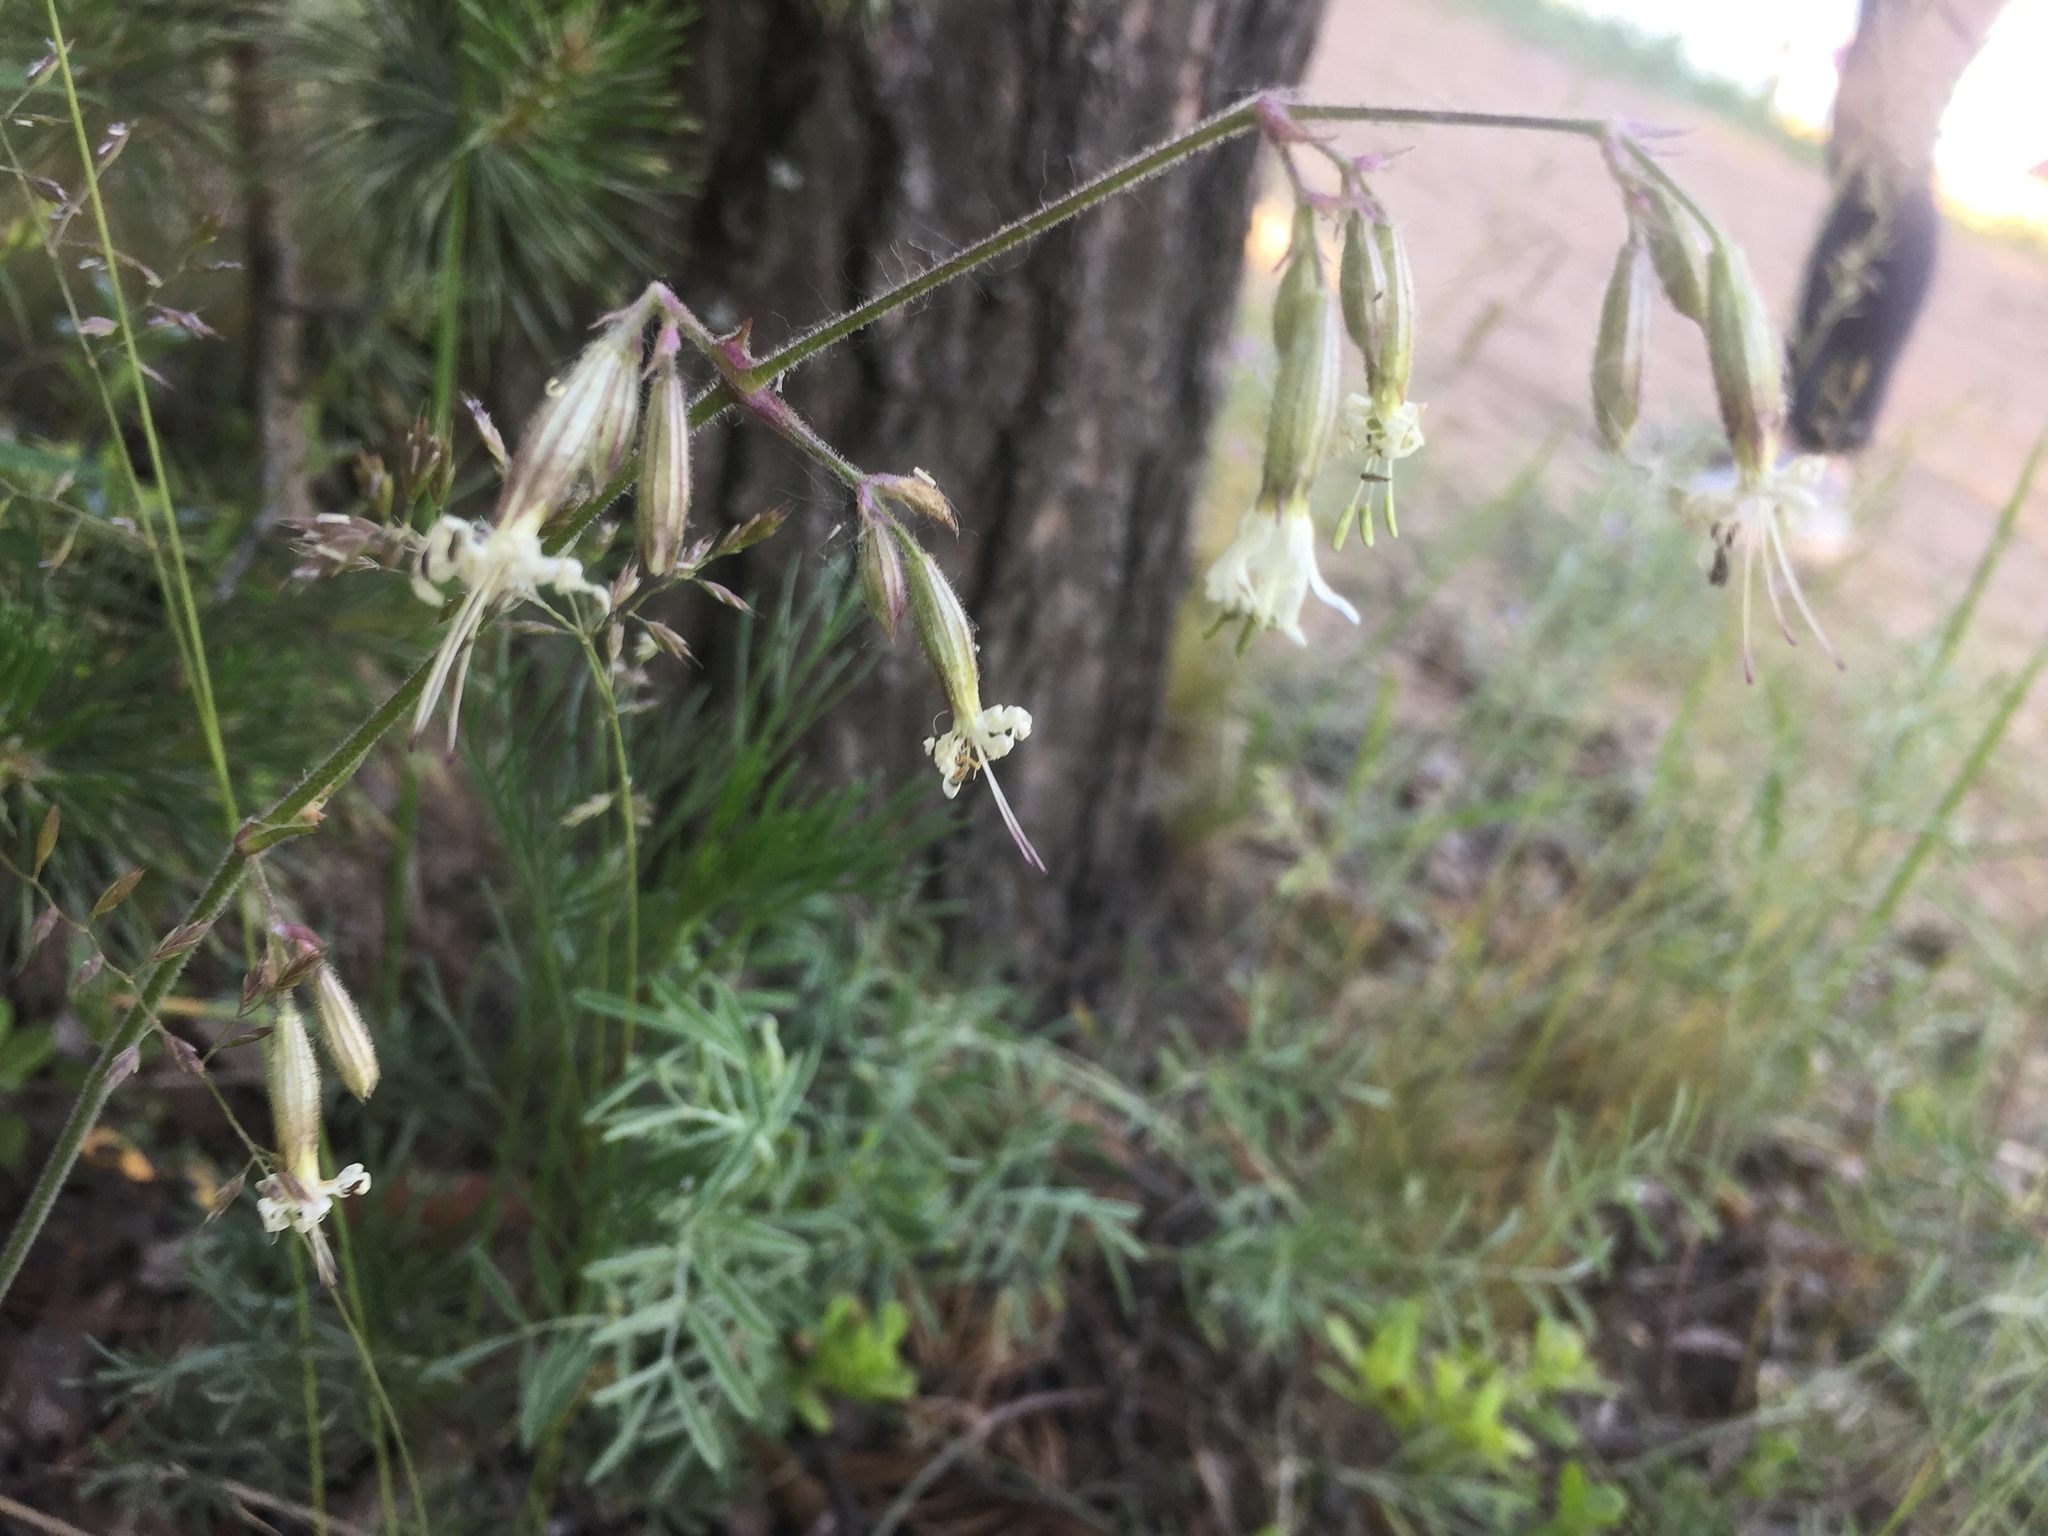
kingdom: Plantae
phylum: Tracheophyta
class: Magnoliopsida
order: Caryophyllales
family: Caryophyllaceae
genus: Silene
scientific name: Silene nutans
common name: Nottingham catchfly
